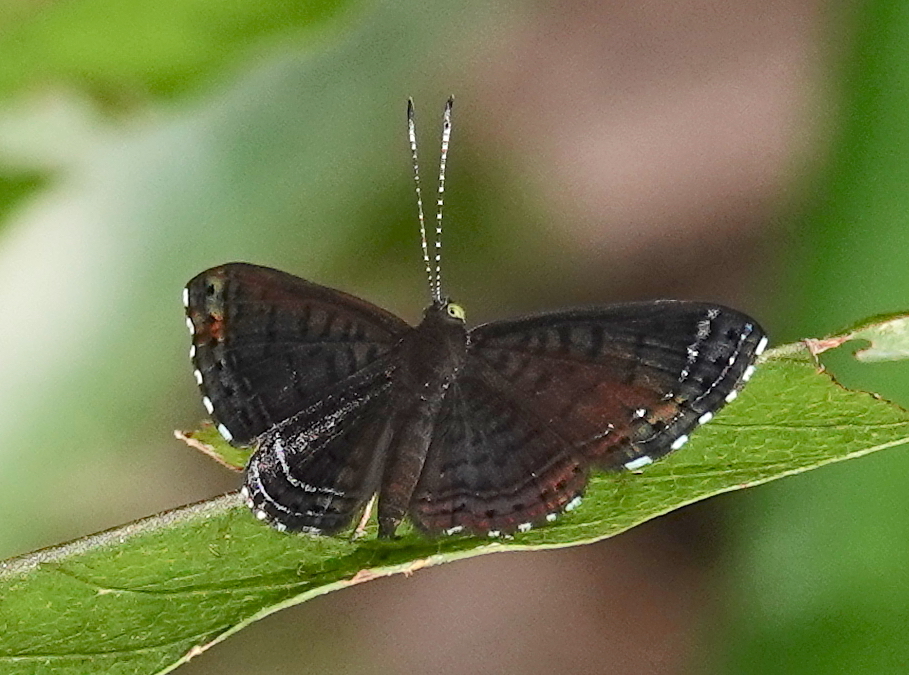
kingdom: Animalia
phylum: Arthropoda
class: Insecta
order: Lepidoptera
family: Riodinidae
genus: Detritivora
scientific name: Detritivora
